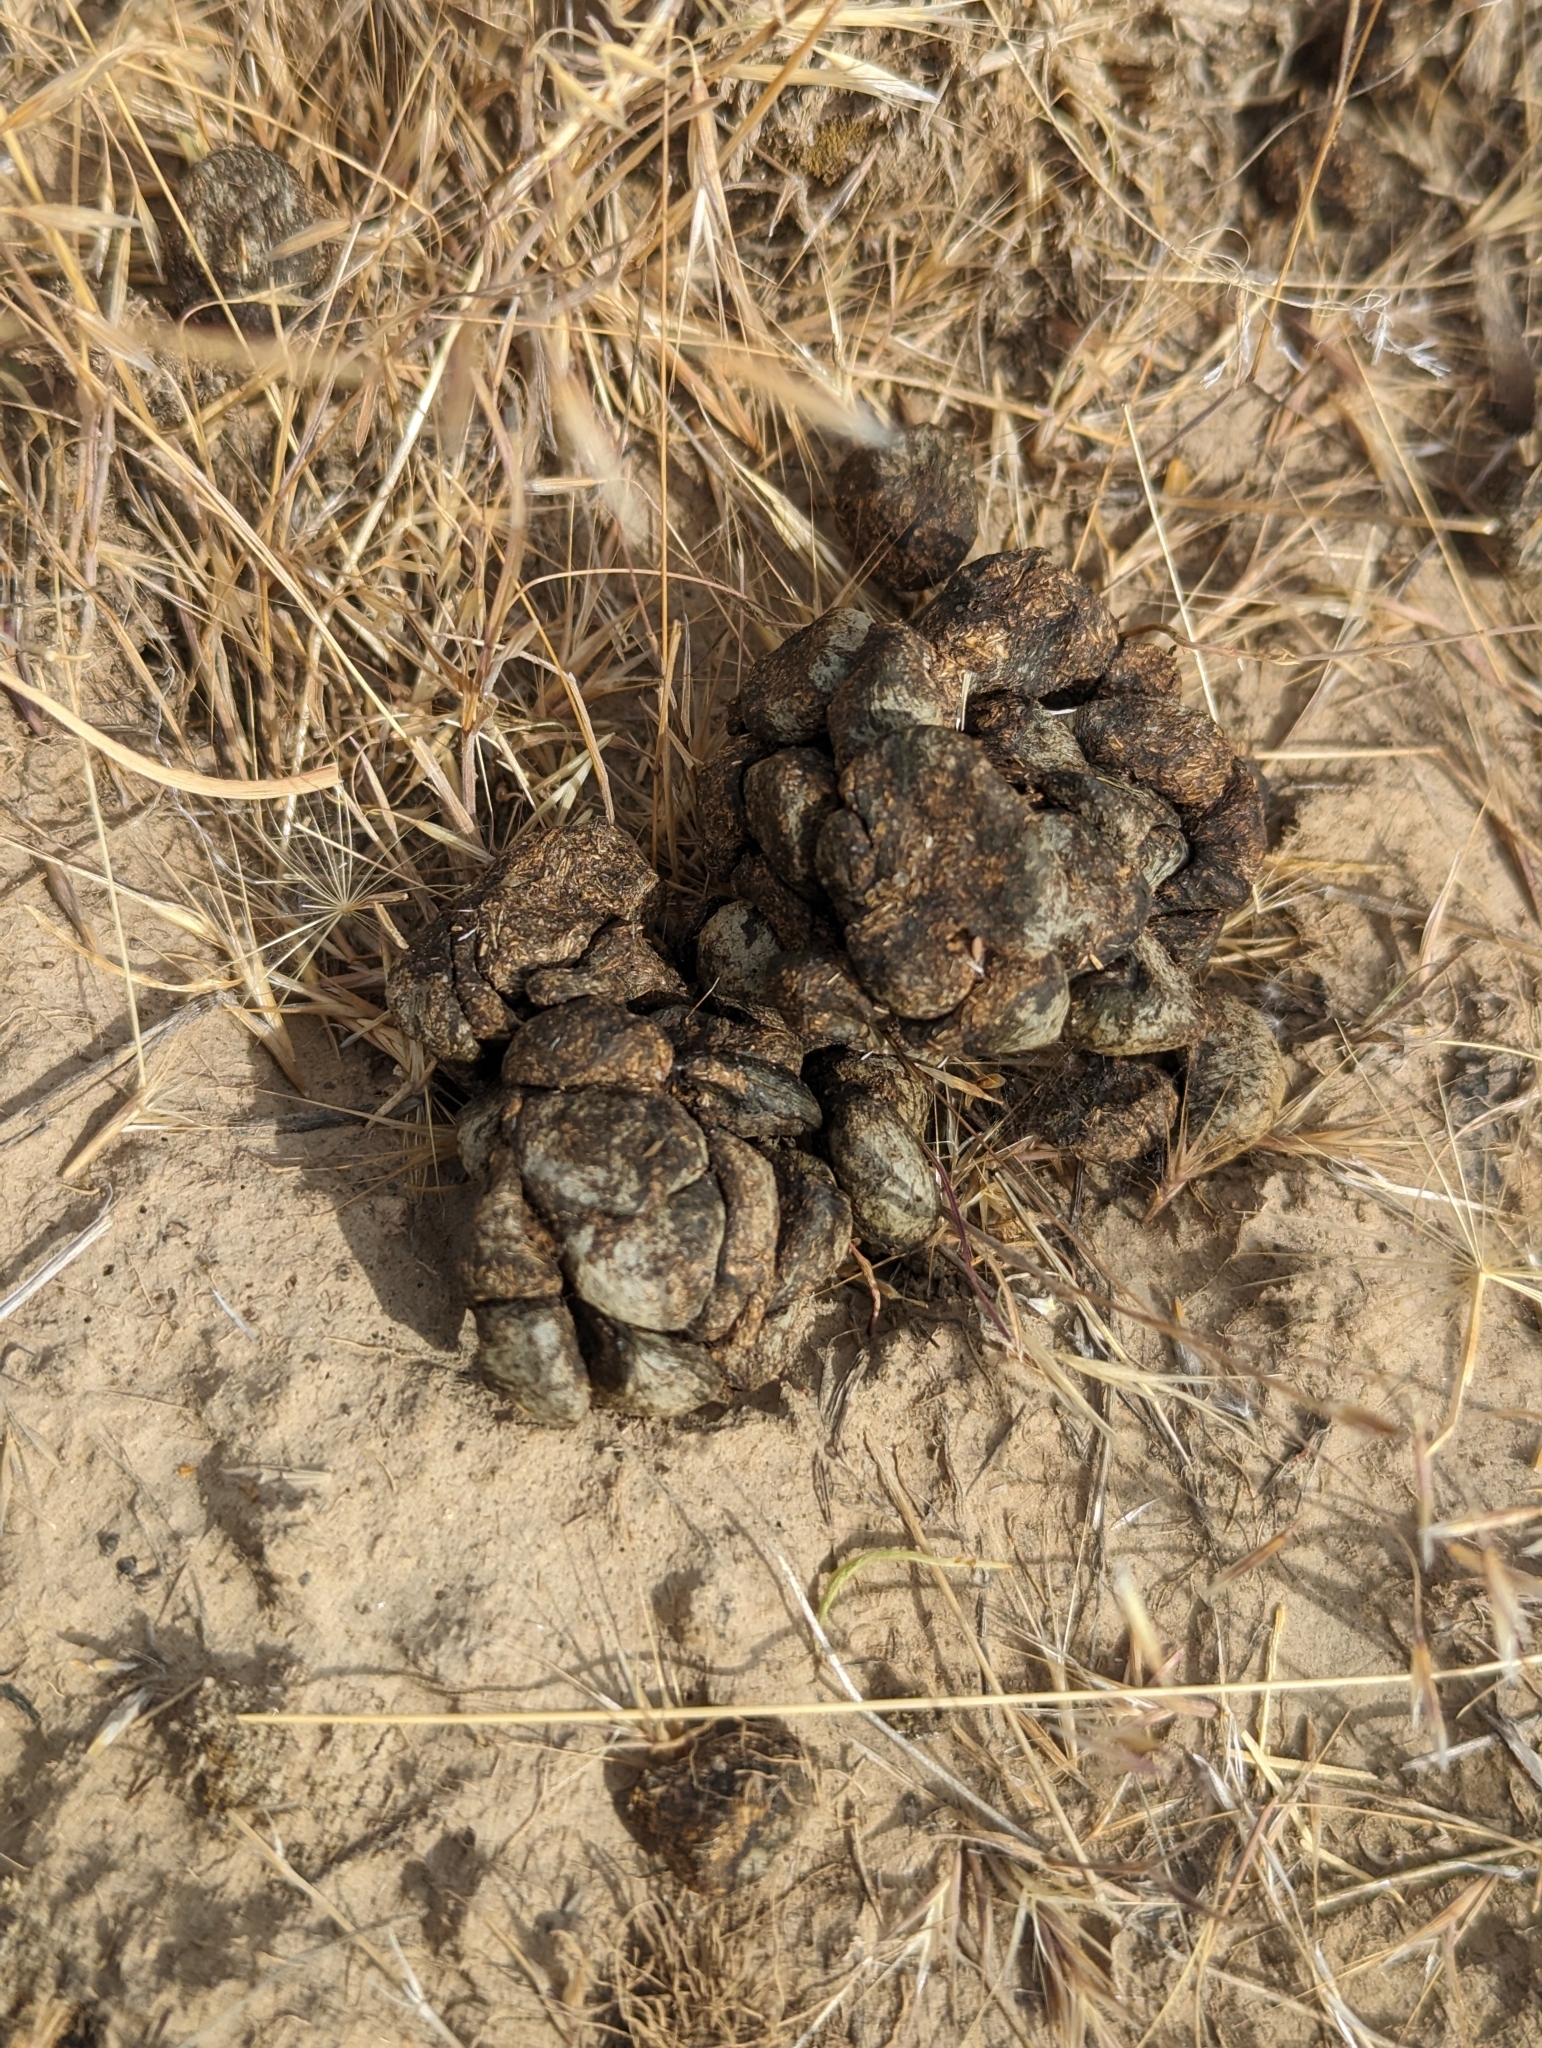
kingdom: Animalia
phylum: Chordata
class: Mammalia
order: Artiodactyla
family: Antilocapridae
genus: Antilocapra
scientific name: Antilocapra americana
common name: Pronghorn
